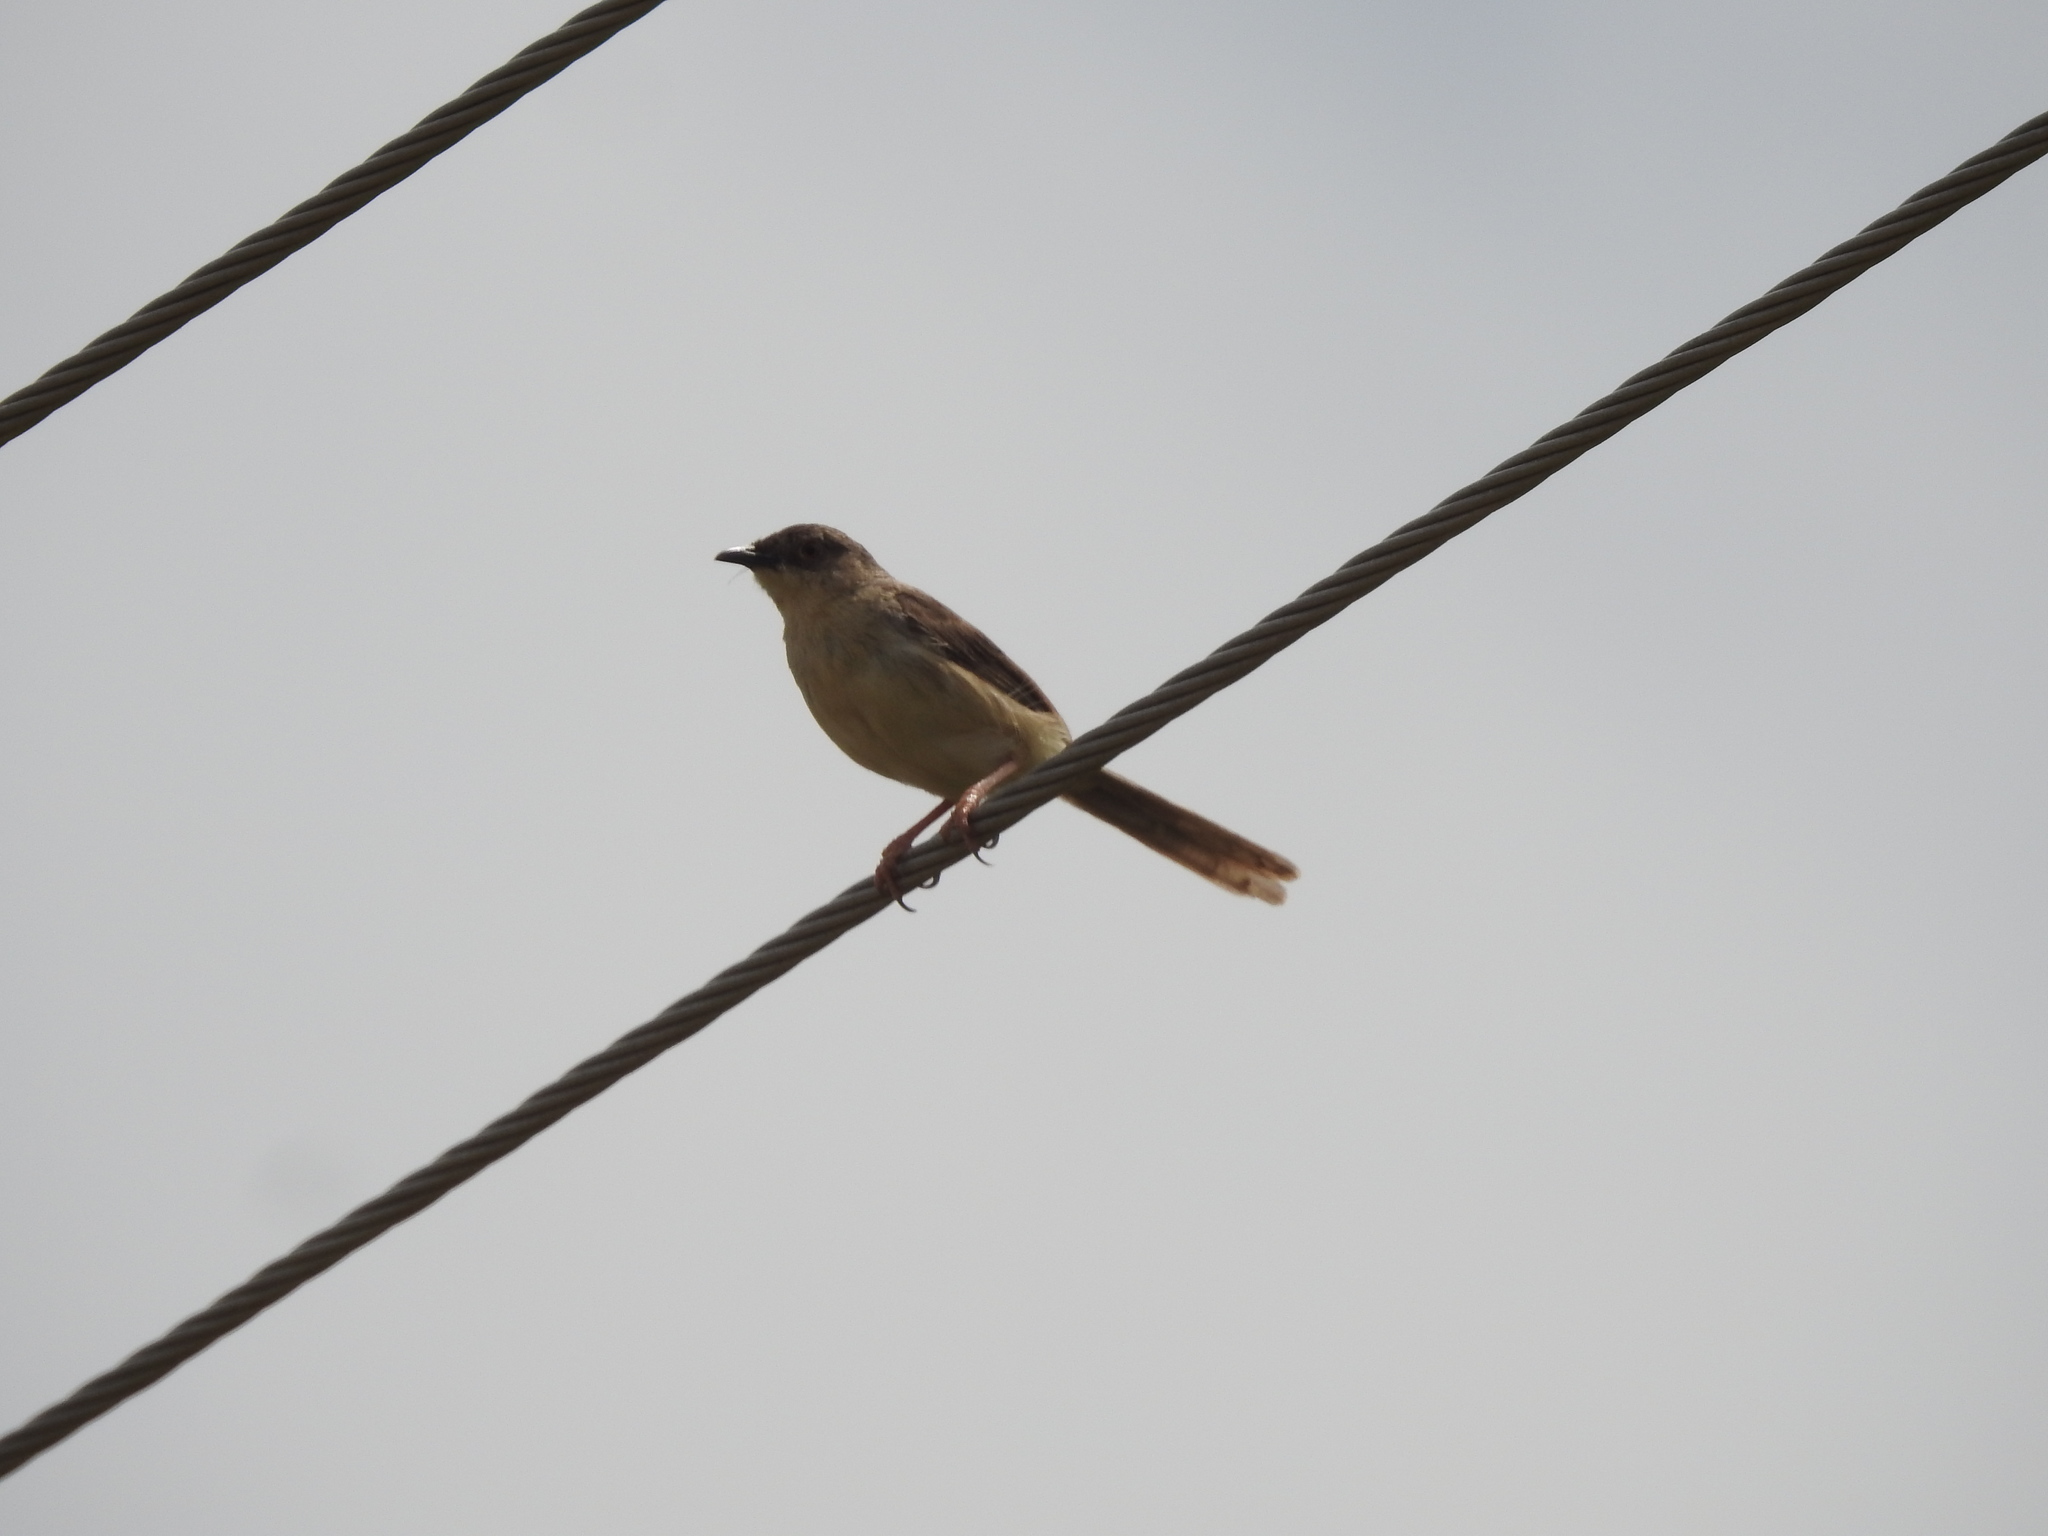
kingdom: Animalia
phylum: Chordata
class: Aves
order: Passeriformes
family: Cisticolidae
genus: Prinia
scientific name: Prinia sylvatica
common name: Jungle prinia
